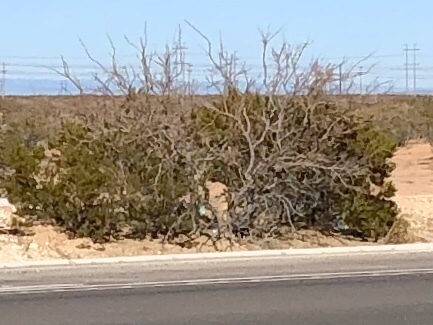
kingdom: Plantae
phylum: Tracheophyta
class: Magnoliopsida
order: Zygophyllales
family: Zygophyllaceae
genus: Larrea
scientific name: Larrea tridentata
